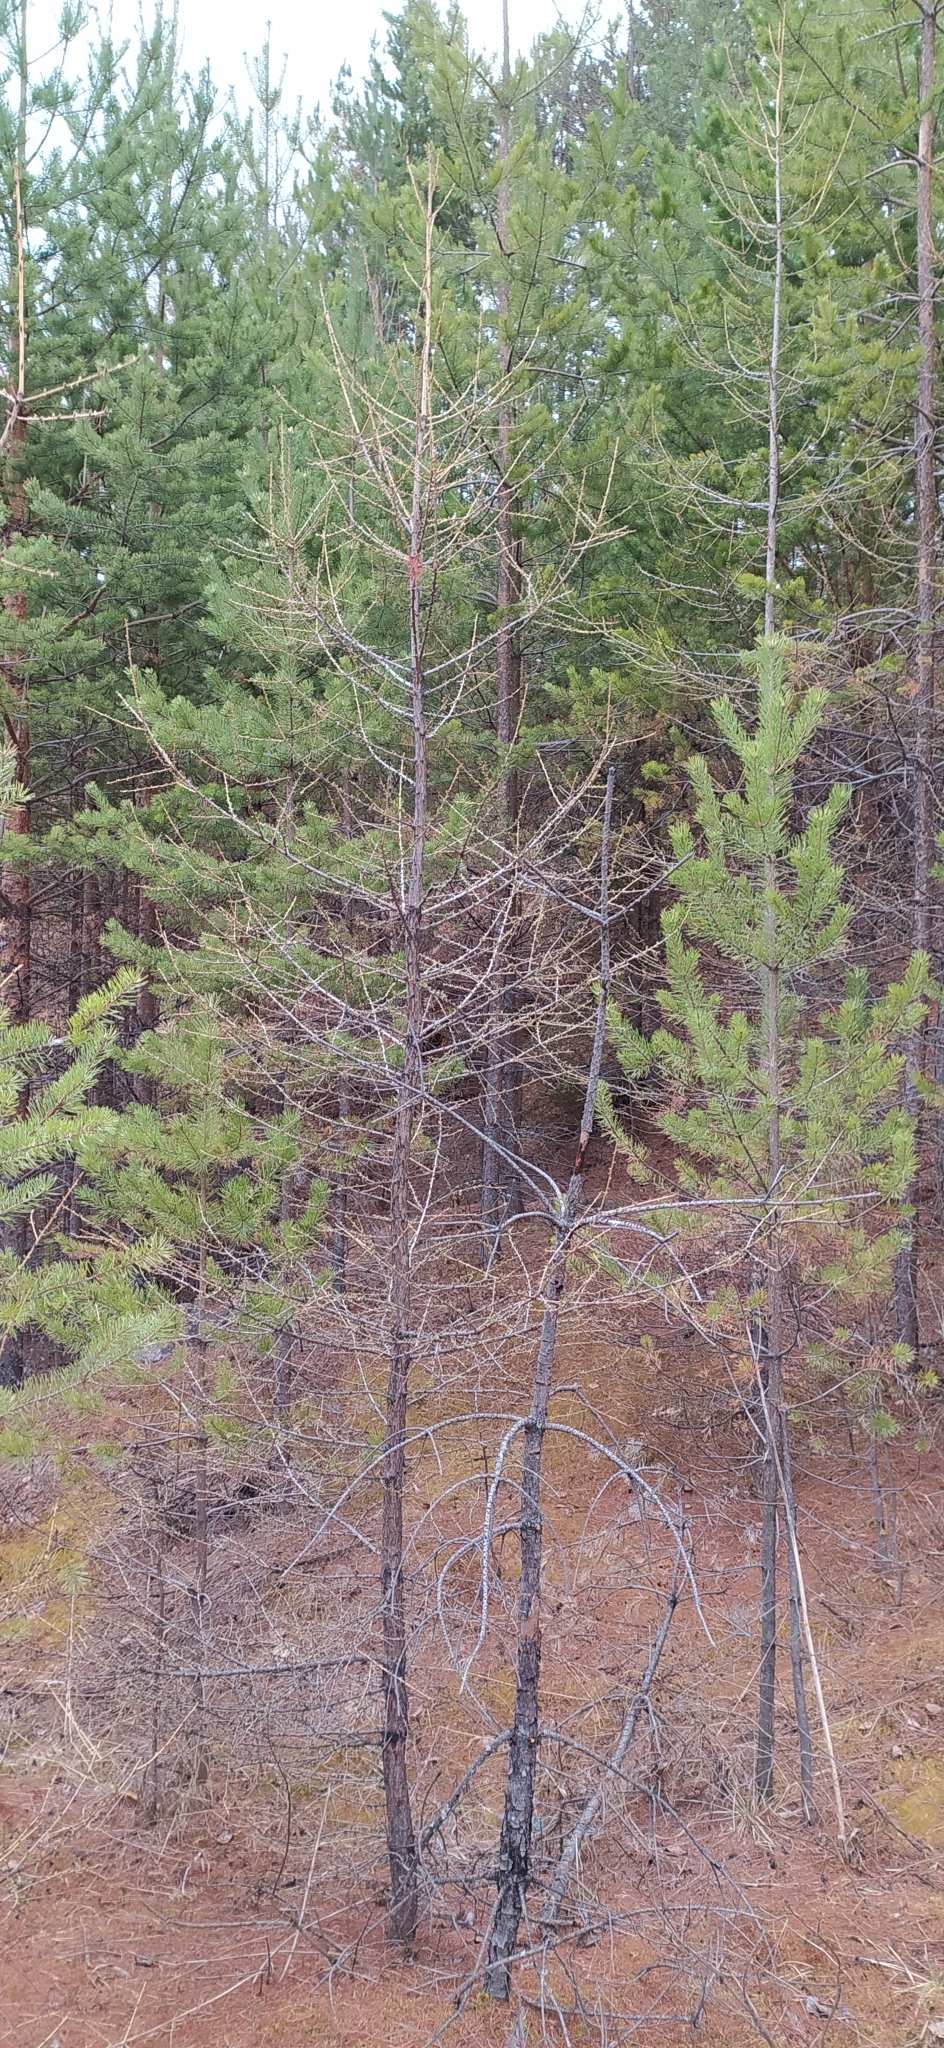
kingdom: Plantae
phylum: Tracheophyta
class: Pinopsida
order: Pinales
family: Pinaceae
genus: Larix
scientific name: Larix sibirica
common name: Siberian larch
